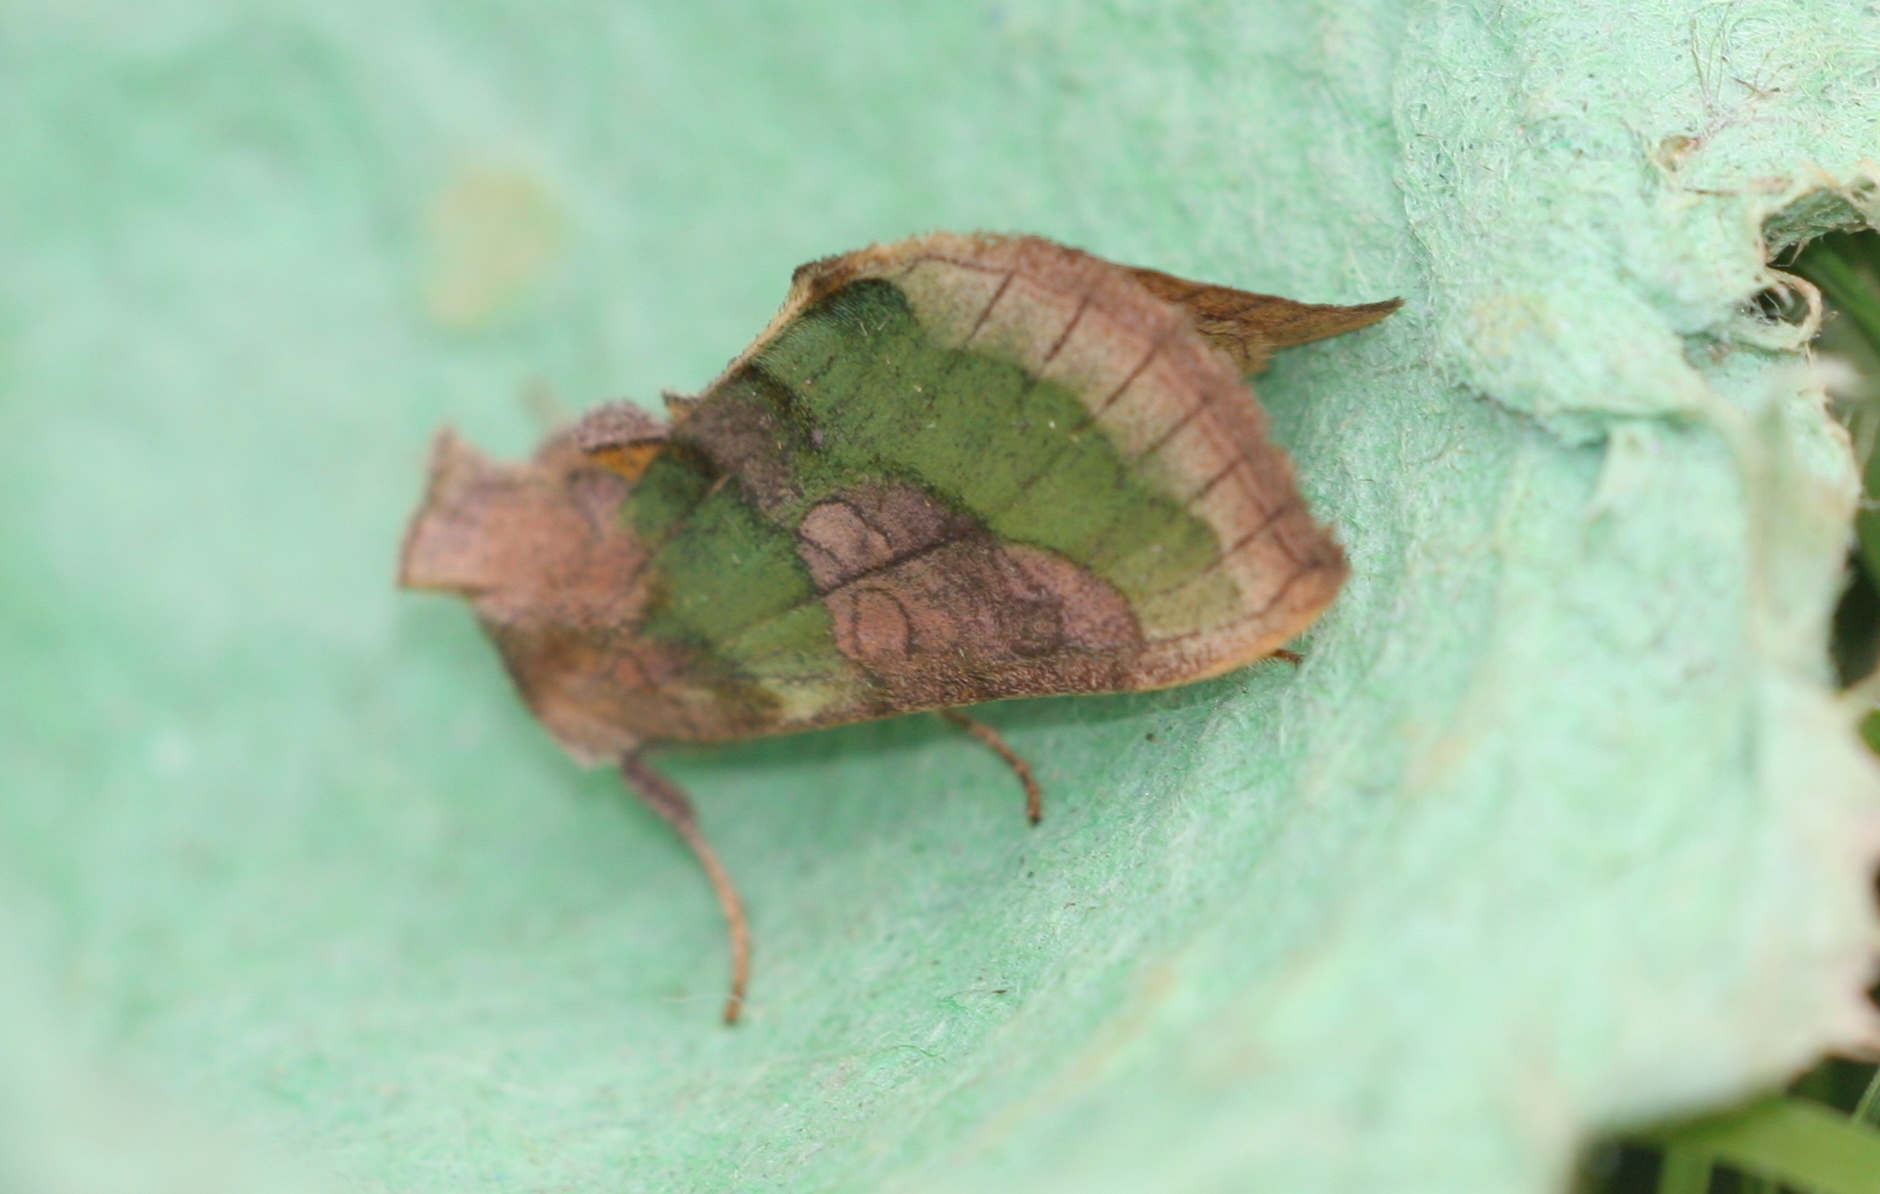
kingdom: Animalia
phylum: Arthropoda
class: Insecta
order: Lepidoptera
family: Noctuidae
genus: Diachrysia
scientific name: Diachrysia chrysitis
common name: Burnished brass
